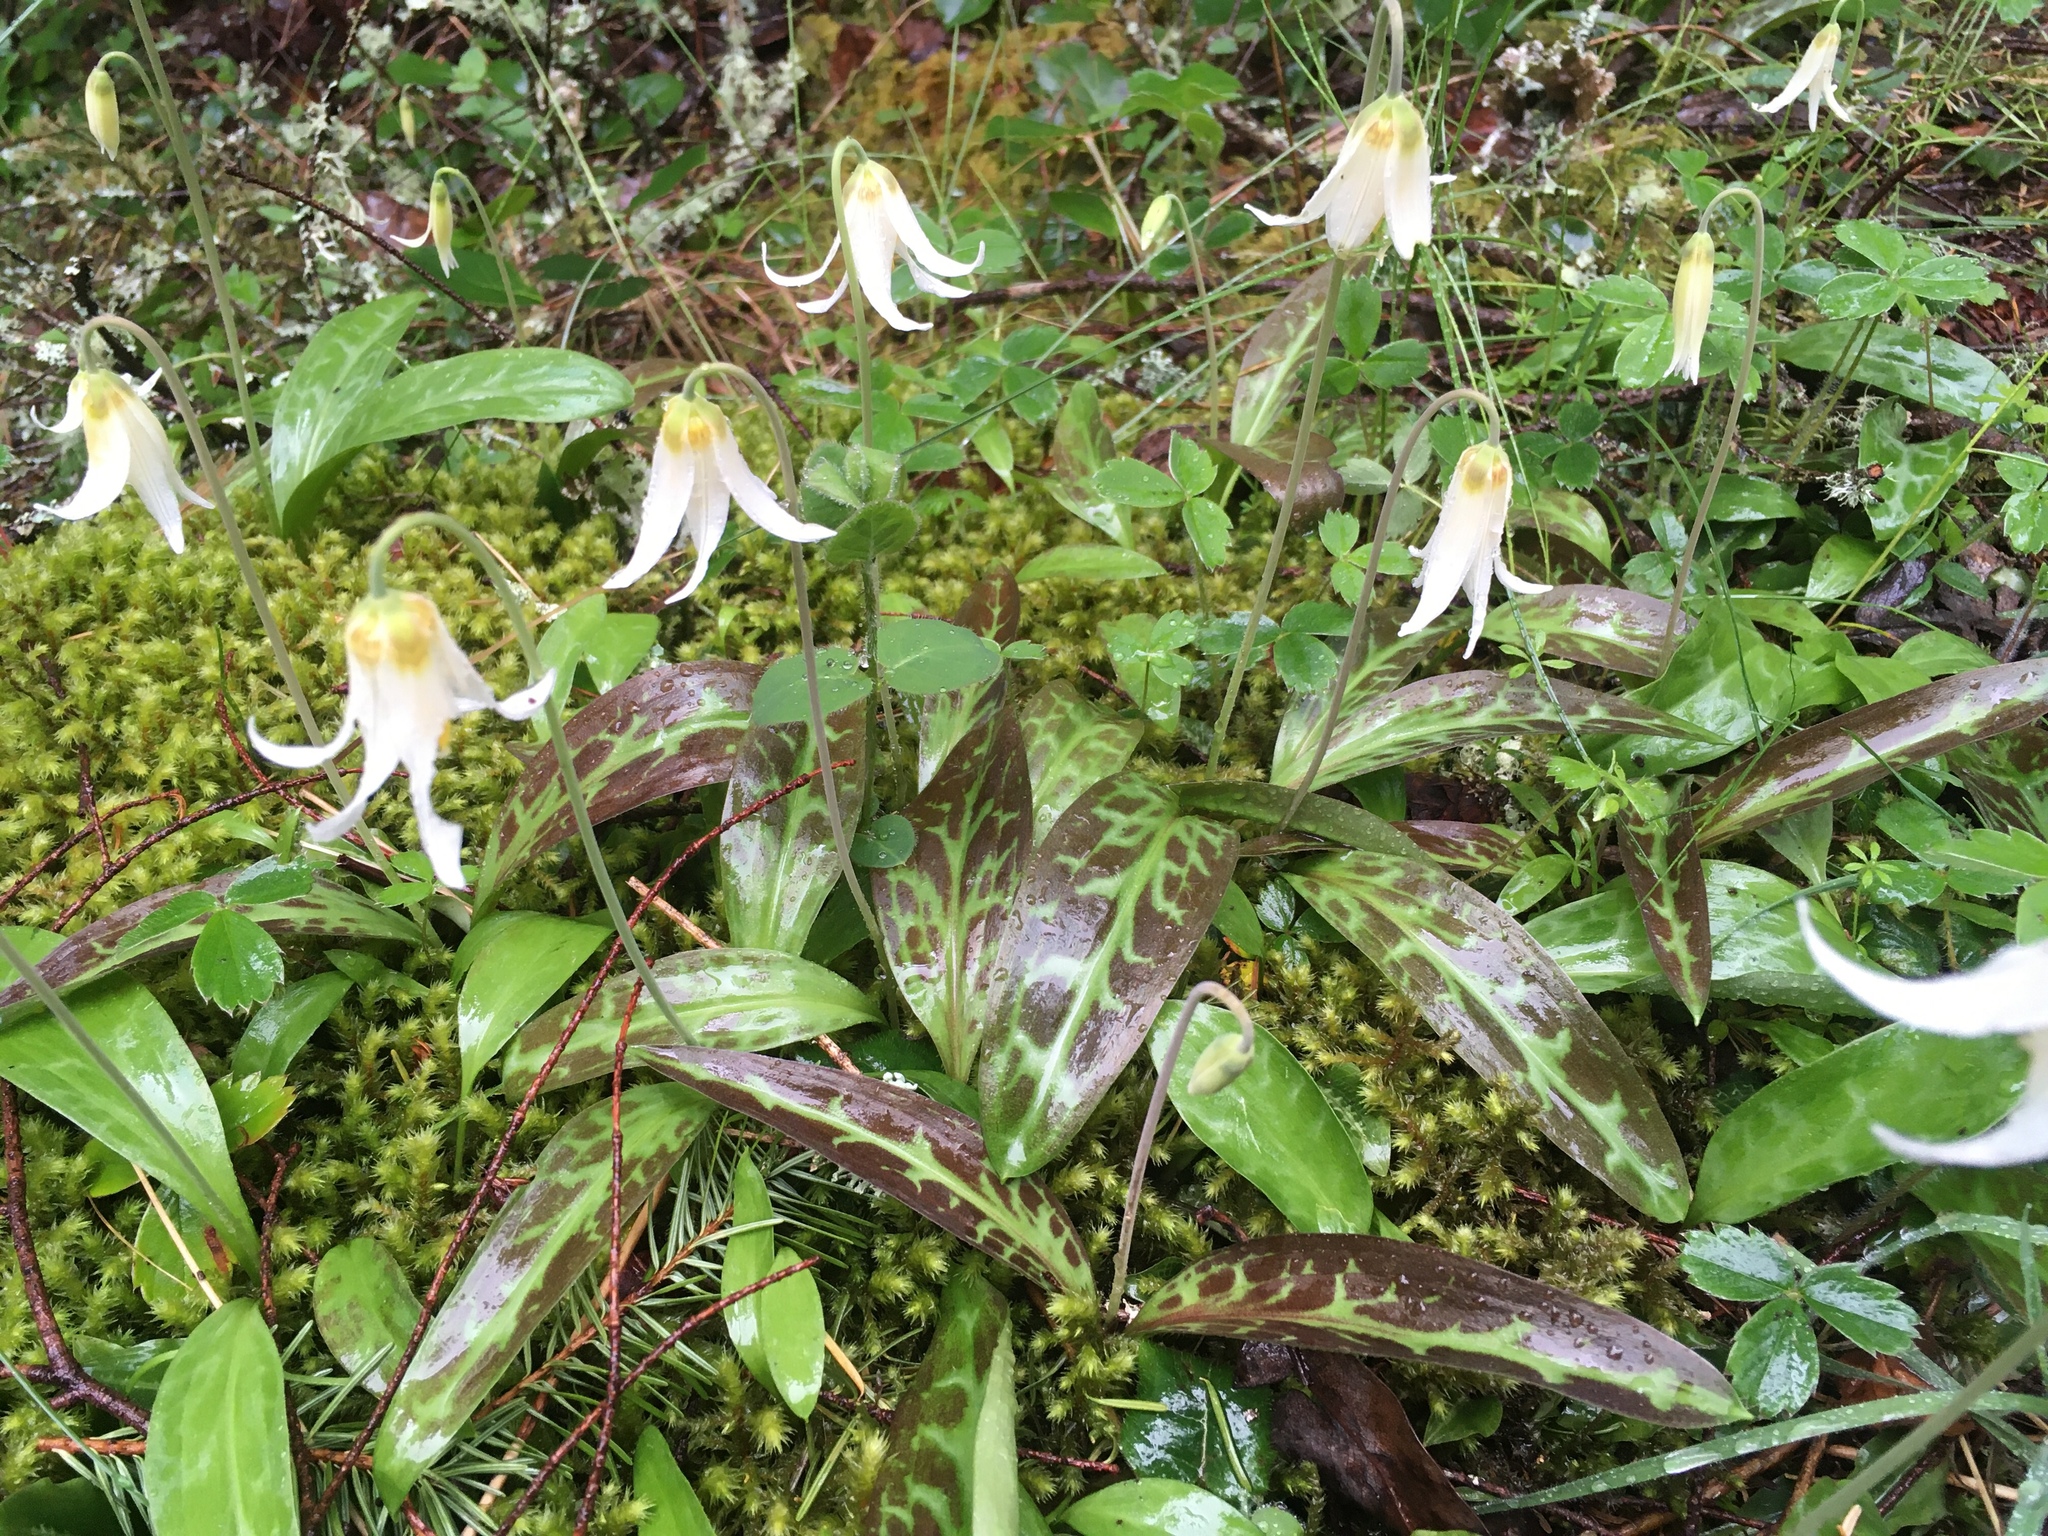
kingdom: Plantae
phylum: Tracheophyta
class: Liliopsida
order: Liliales
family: Liliaceae
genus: Erythronium
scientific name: Erythronium oregonum
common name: Giant adder's-tongue
